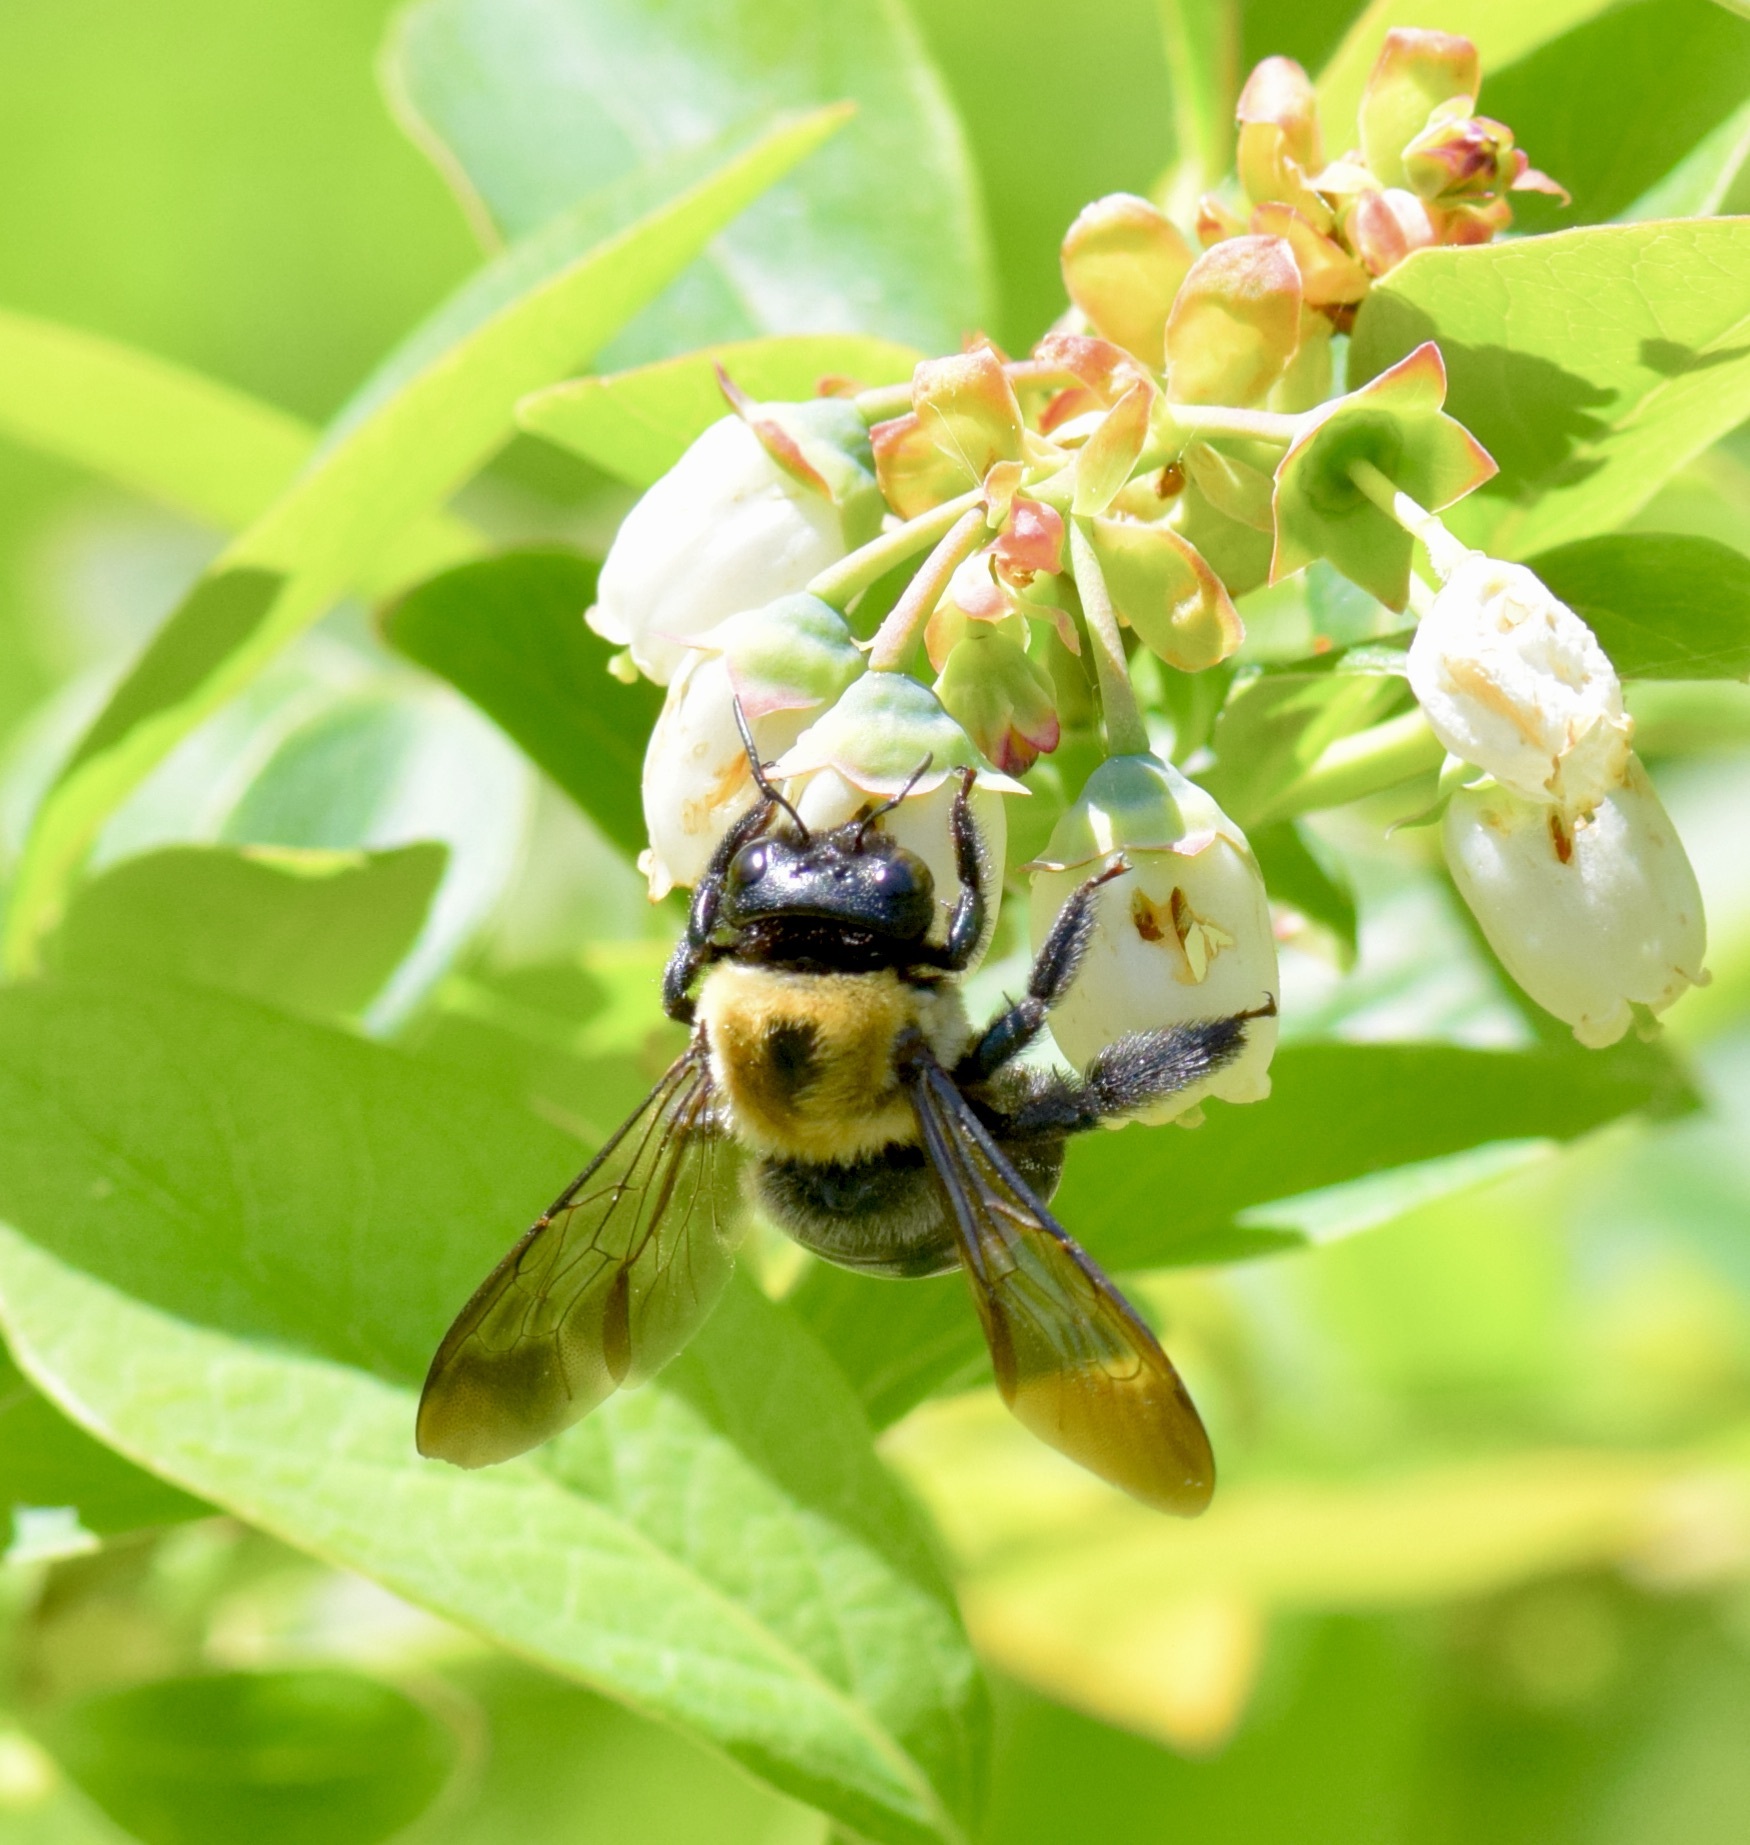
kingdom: Animalia
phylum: Arthropoda
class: Insecta
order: Hymenoptera
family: Apidae
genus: Xylocopa
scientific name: Xylocopa virginica
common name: Carpenter bee
